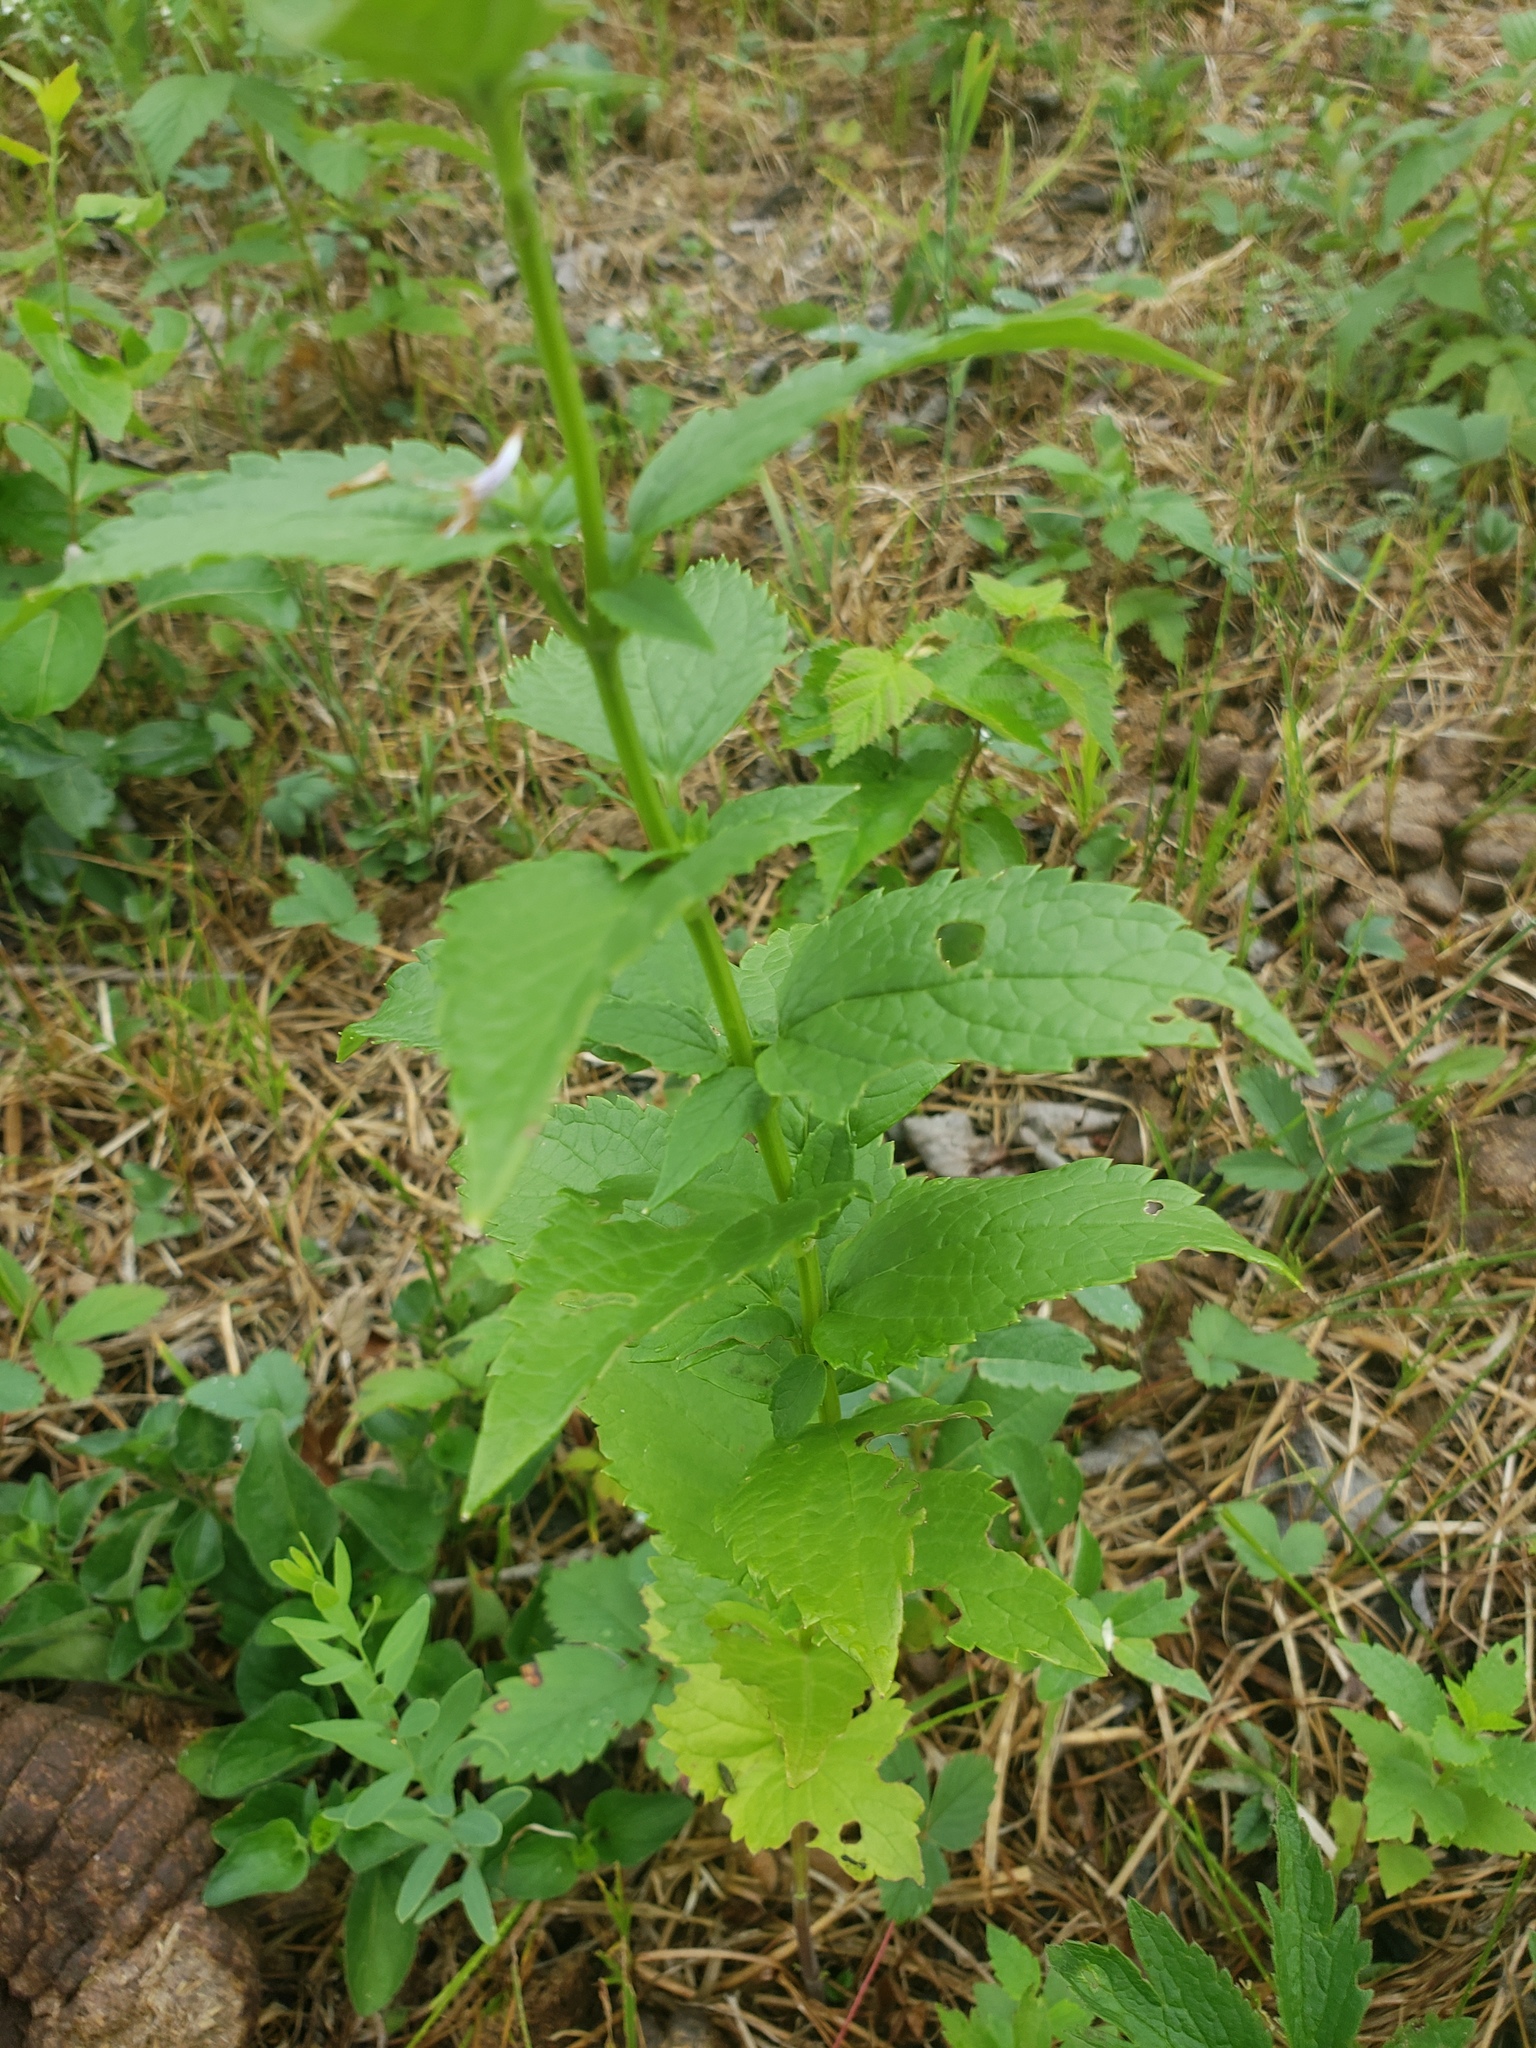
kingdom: Plantae
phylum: Tracheophyta
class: Magnoliopsida
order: Lamiales
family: Lamiaceae
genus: Agastache
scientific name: Agastache foeniculum
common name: Anise hyssop
